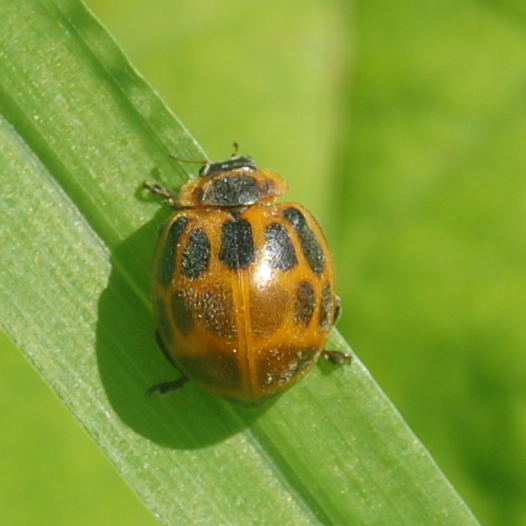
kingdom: Animalia
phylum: Arthropoda
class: Insecta
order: Coleoptera
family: Coccinellidae
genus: Epilachna
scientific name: Epilachna
